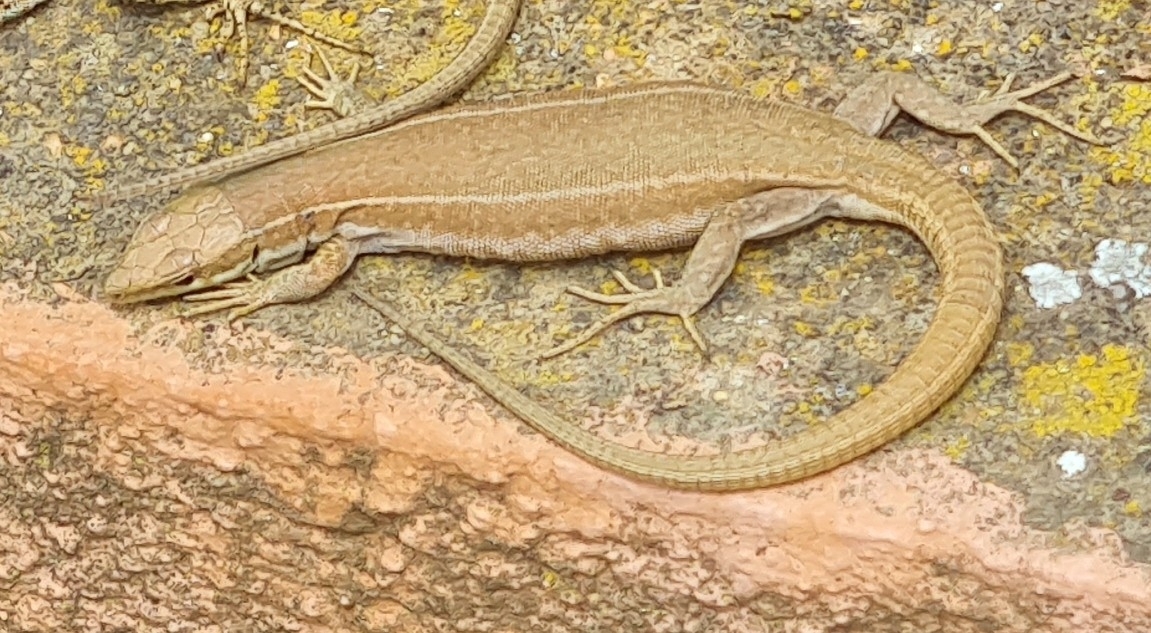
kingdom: Animalia
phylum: Chordata
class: Squamata
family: Lacertidae
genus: Podarcis
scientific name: Podarcis liolepis
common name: Catalonian wall lizard
